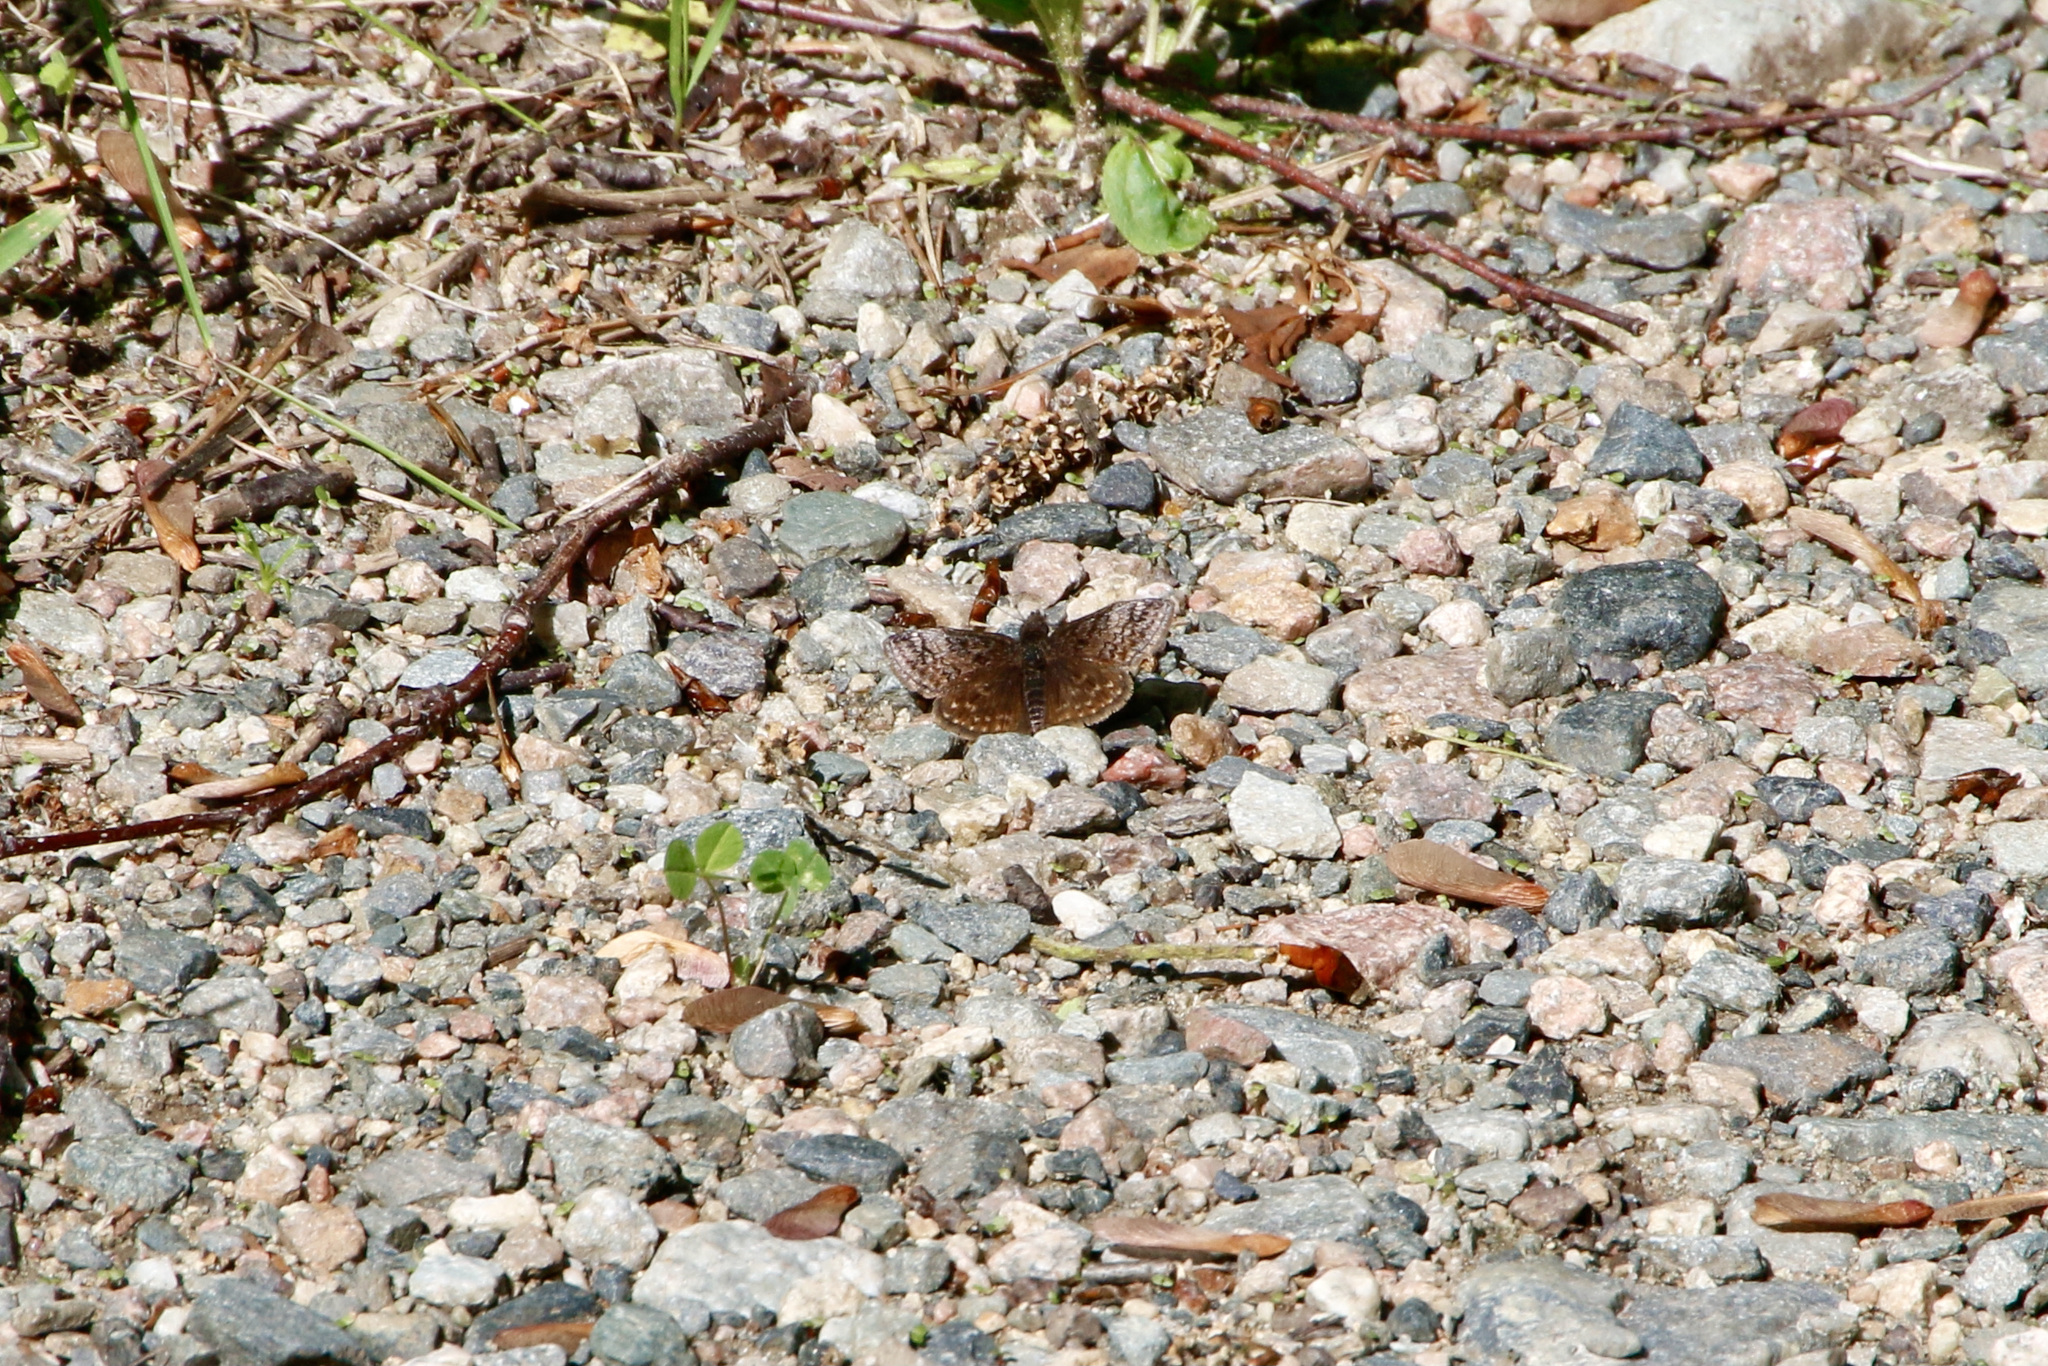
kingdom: Animalia
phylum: Arthropoda
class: Insecta
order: Lepidoptera
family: Hesperiidae
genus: Erynnis
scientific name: Erynnis icelus
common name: Dreamy duskywing
